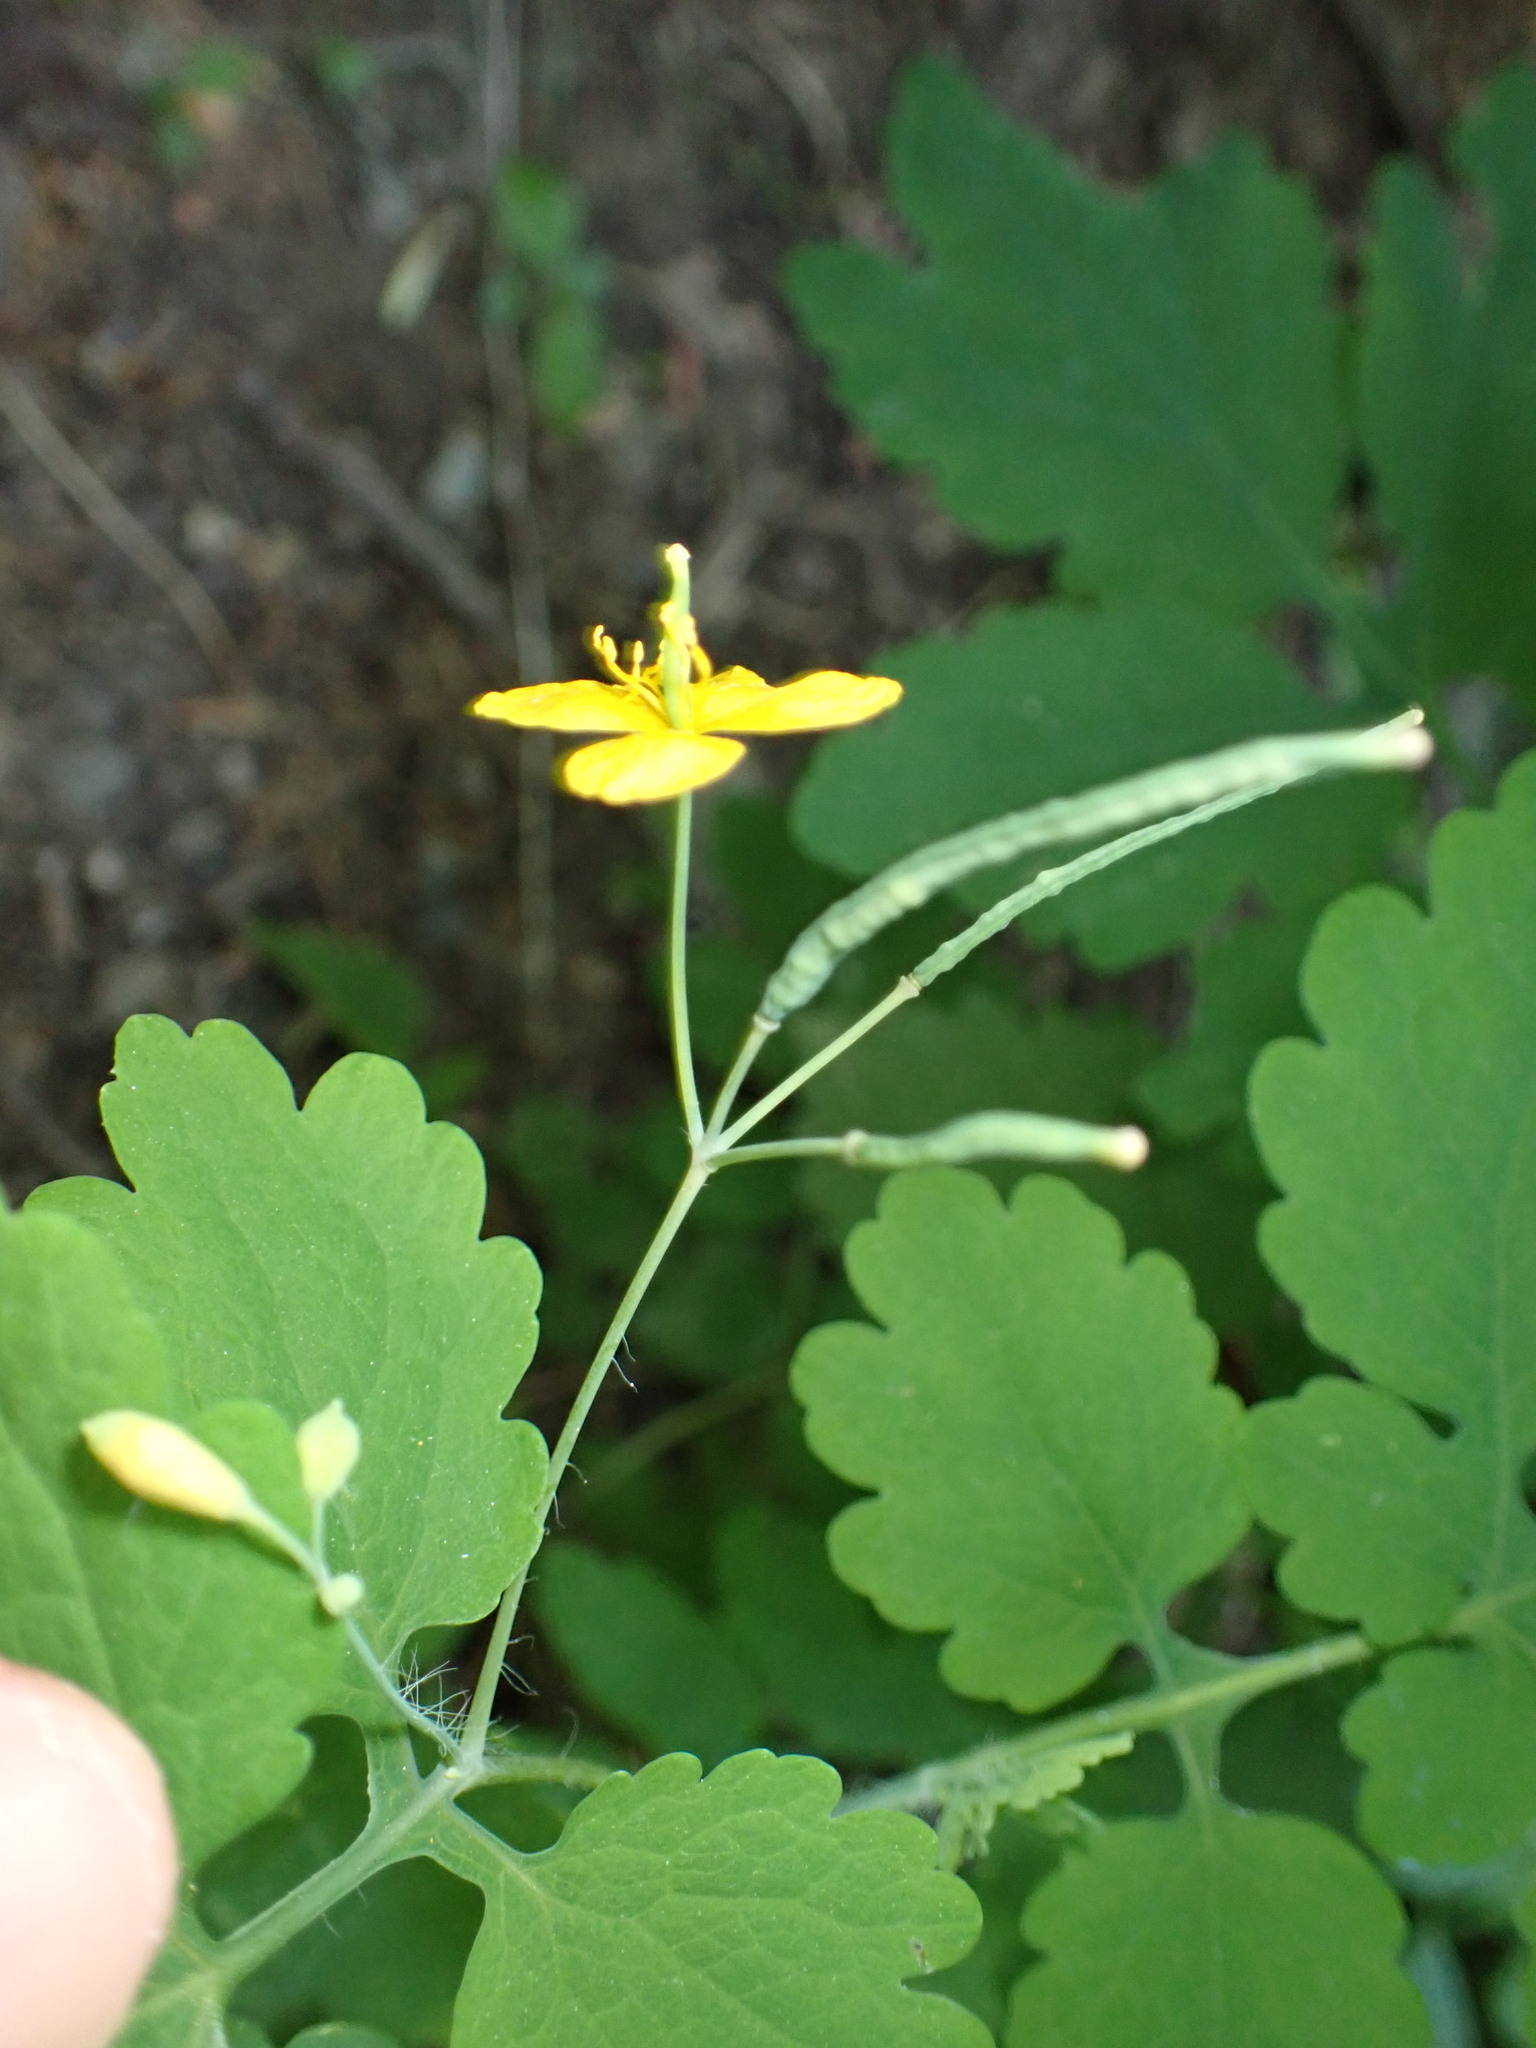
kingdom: Plantae
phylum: Tracheophyta
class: Magnoliopsida
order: Ranunculales
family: Papaveraceae
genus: Chelidonium
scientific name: Chelidonium majus
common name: Greater celandine
